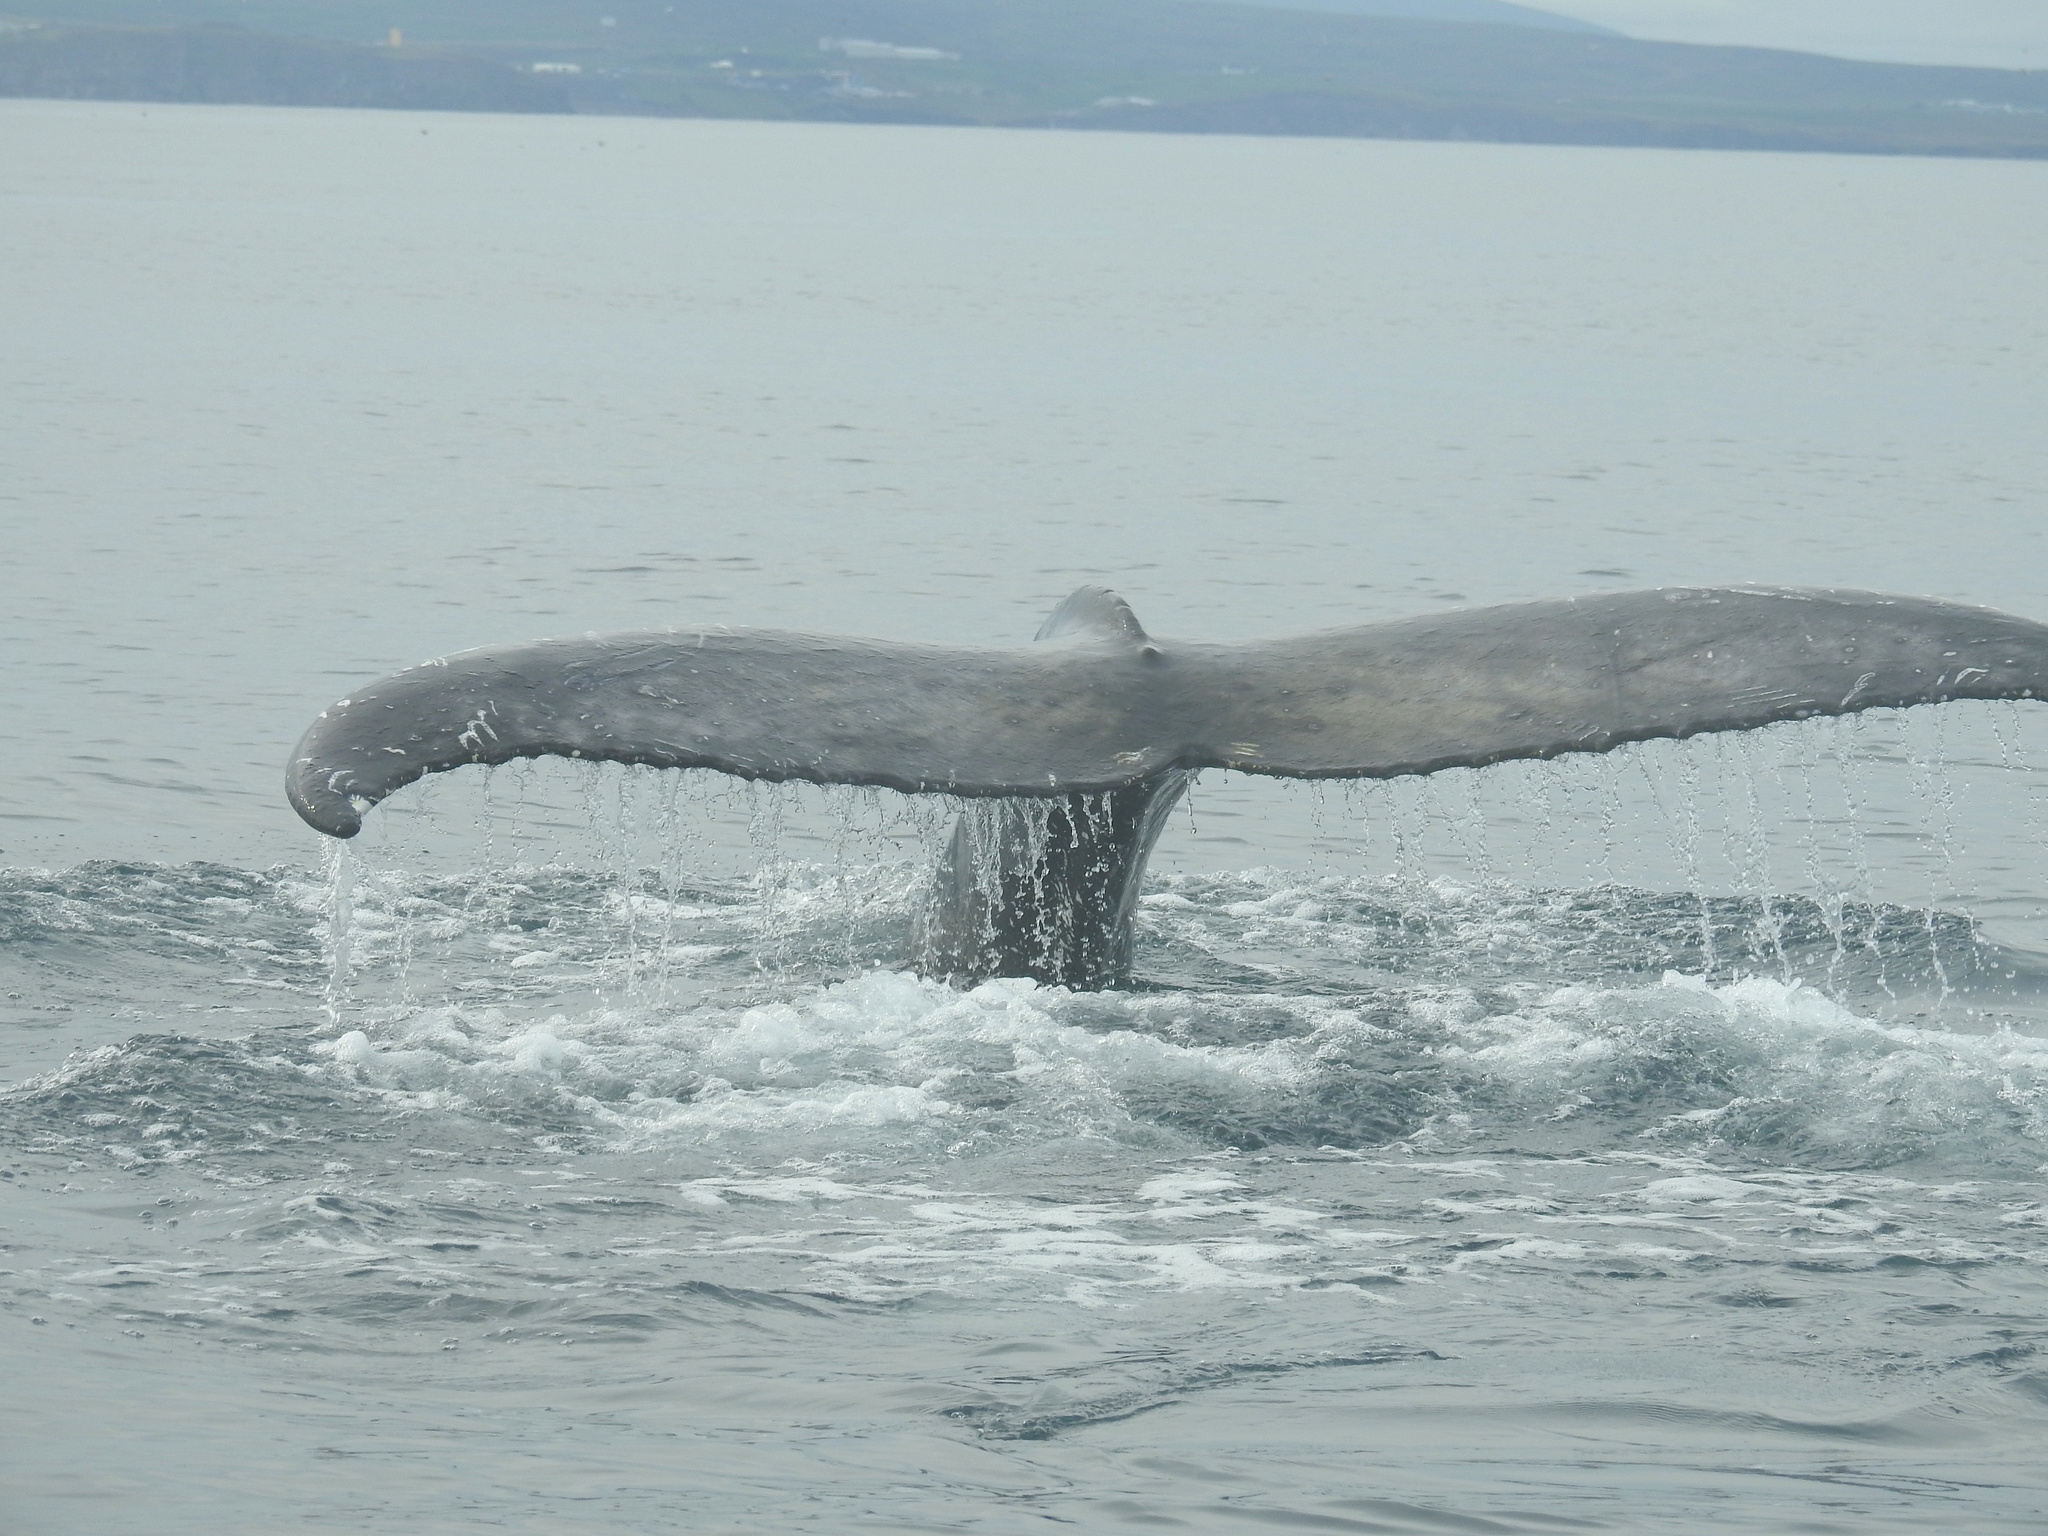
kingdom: Animalia
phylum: Chordata
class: Mammalia
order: Cetacea
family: Balaenopteridae
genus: Megaptera
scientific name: Megaptera novaeangliae
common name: Humpback whale
